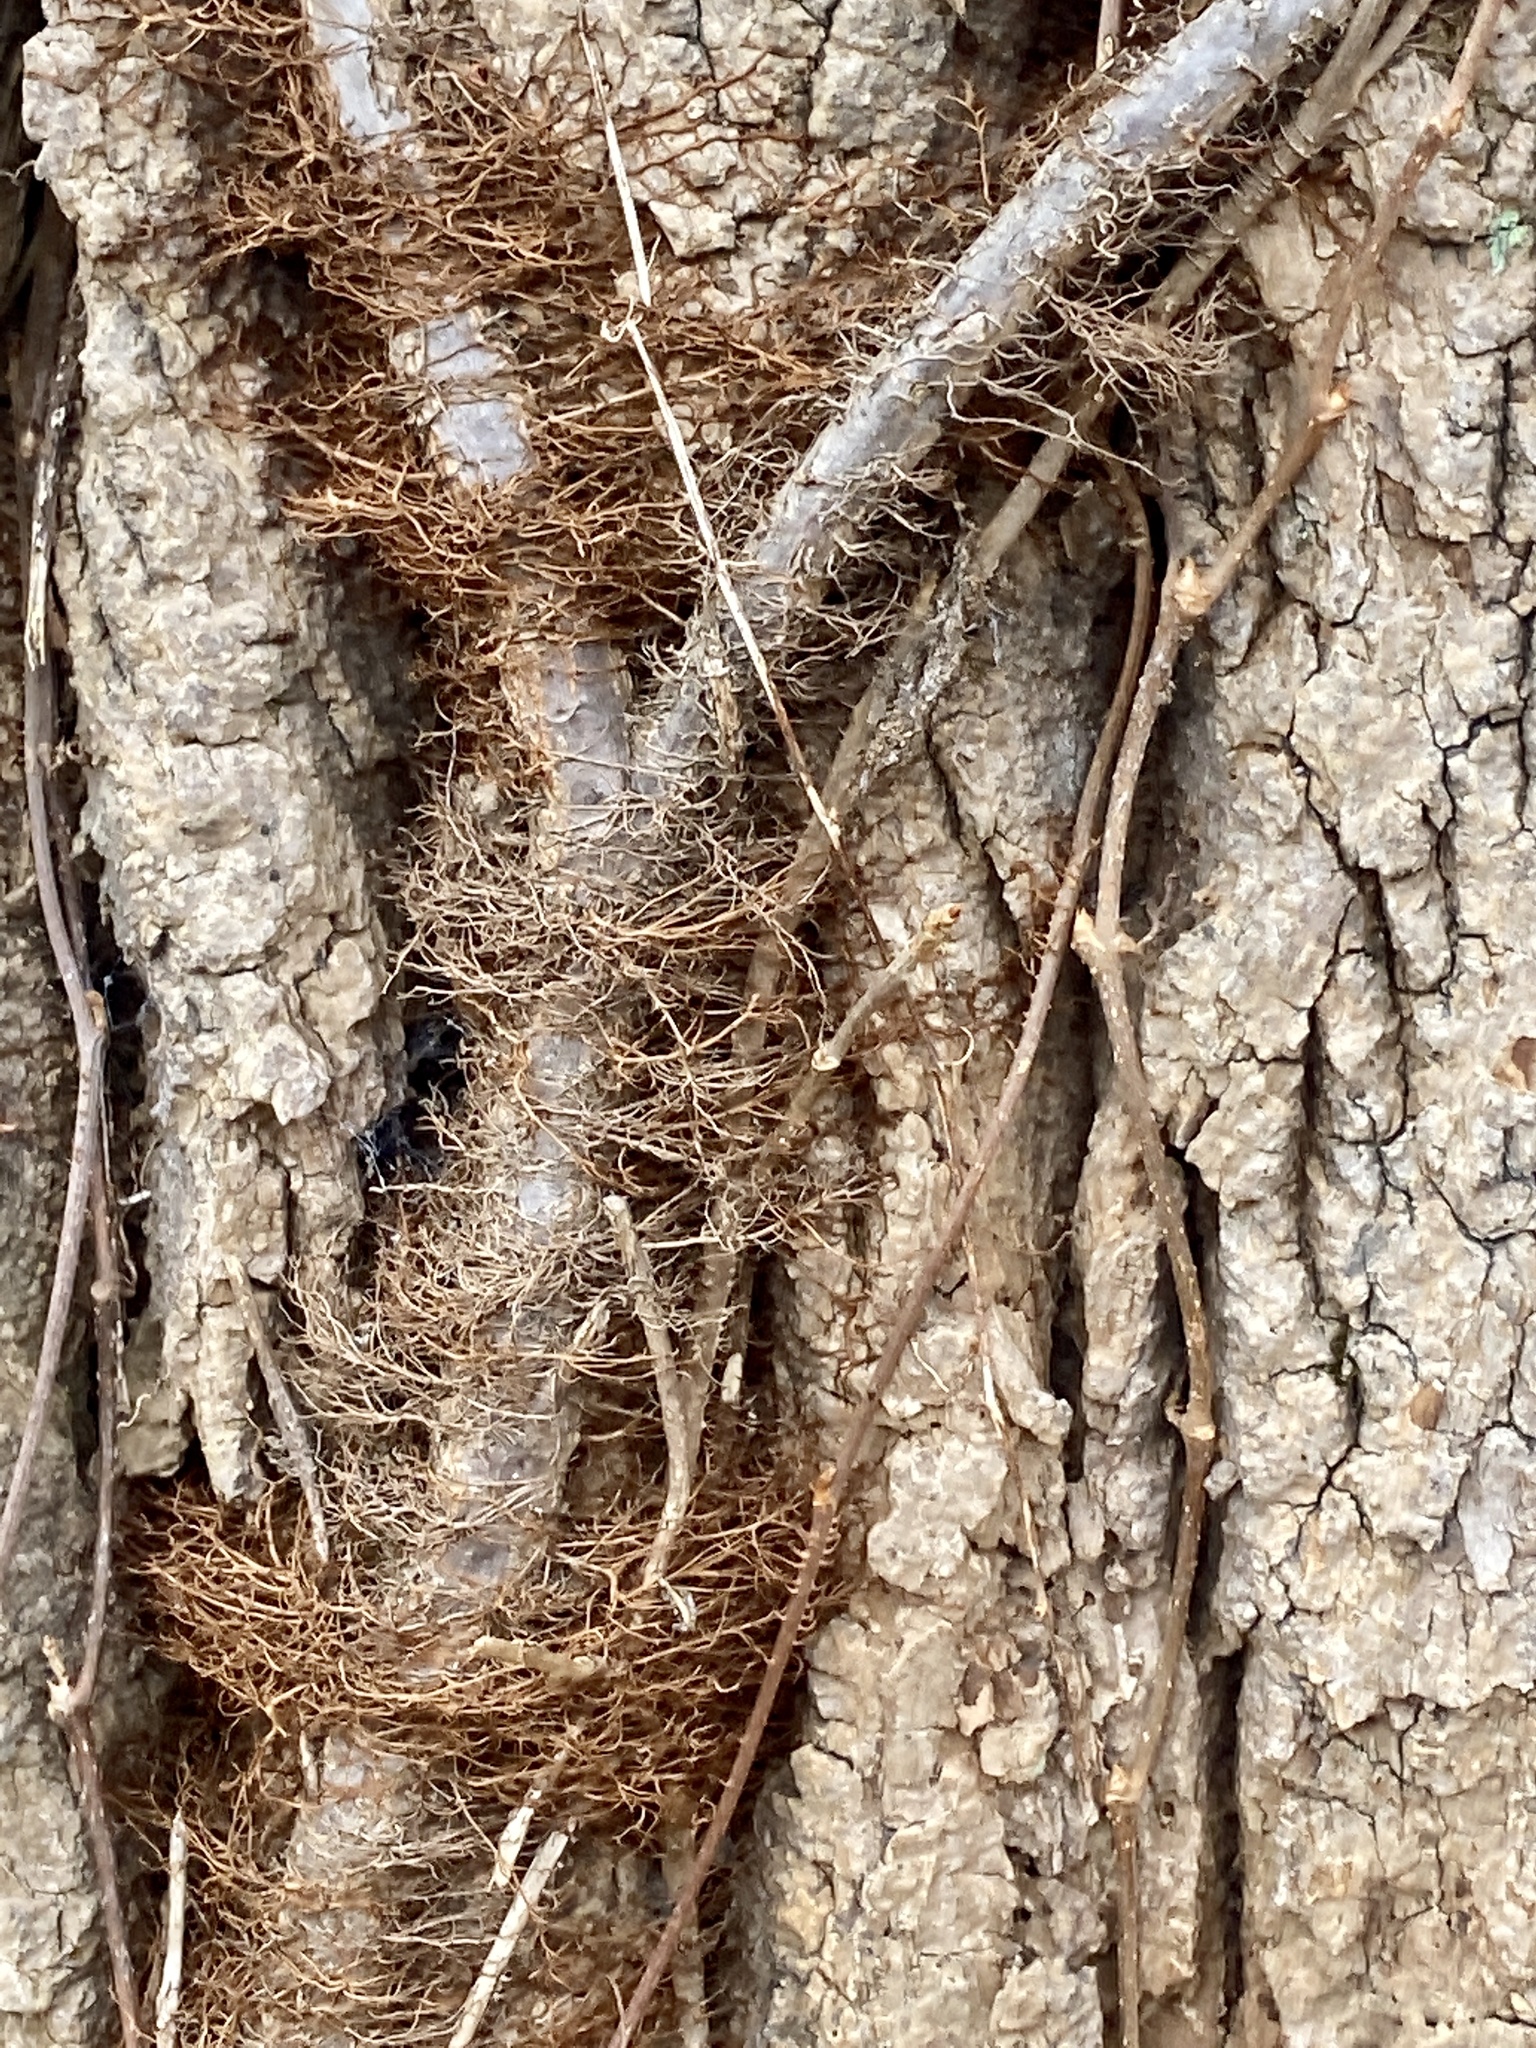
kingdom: Plantae
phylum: Tracheophyta
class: Magnoliopsida
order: Sapindales
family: Anacardiaceae
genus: Toxicodendron
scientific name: Toxicodendron radicans
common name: Poison ivy
